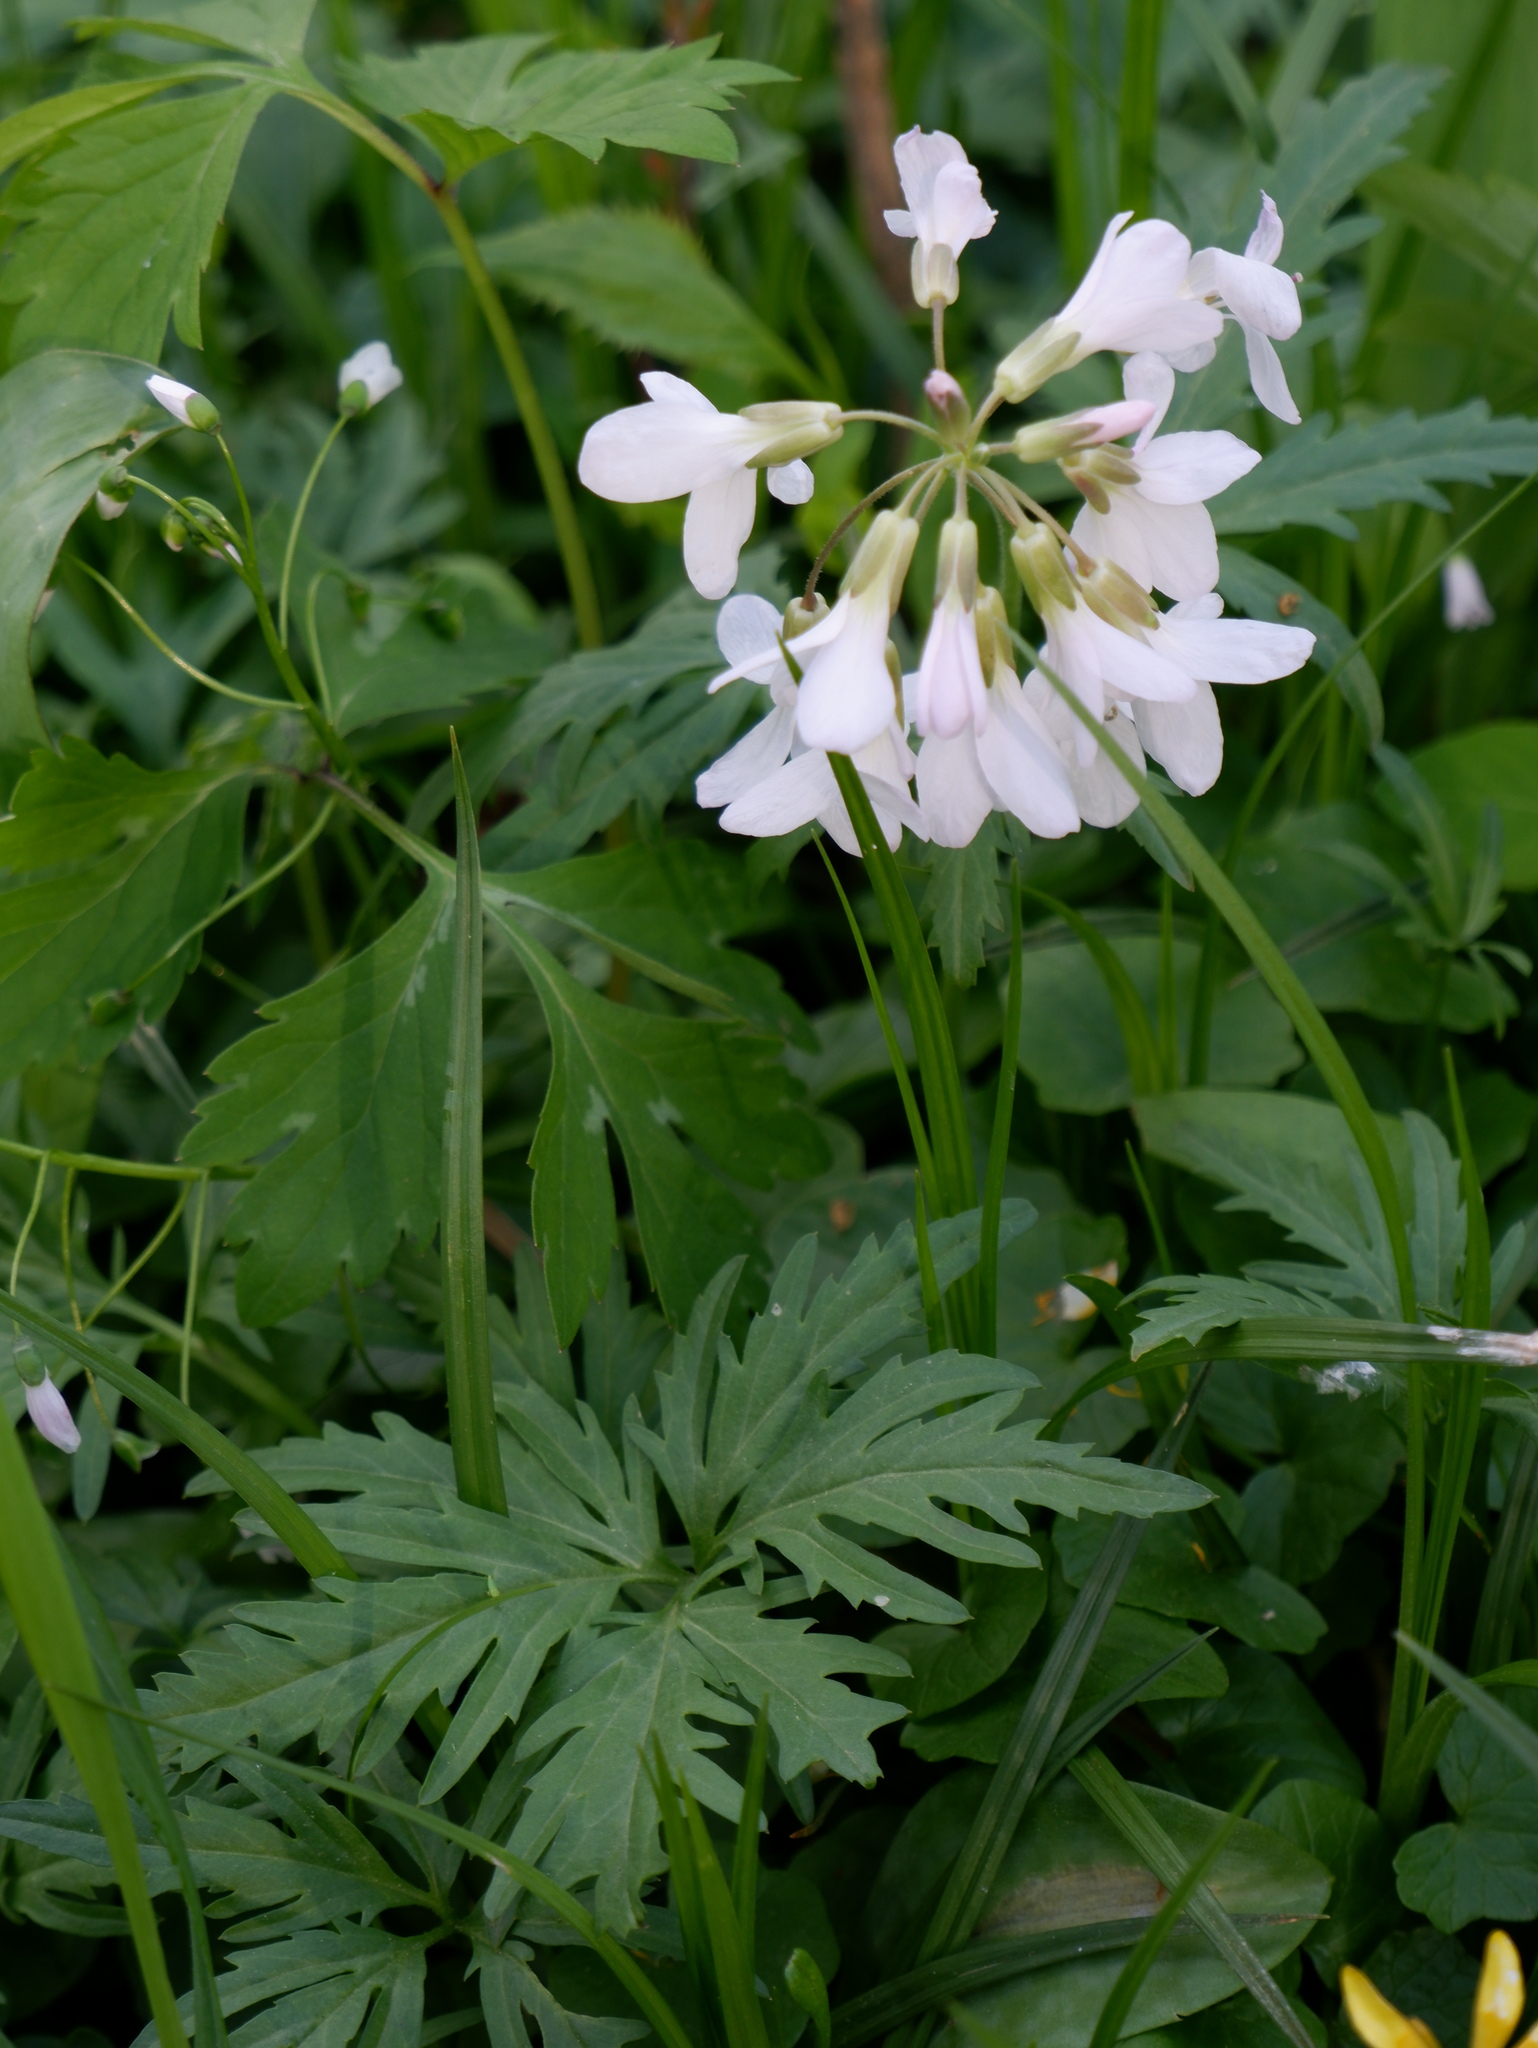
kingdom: Plantae
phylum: Tracheophyta
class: Magnoliopsida
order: Brassicales
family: Brassicaceae
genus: Cardamine
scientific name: Cardamine concatenata
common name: Cut-leaf toothcup
